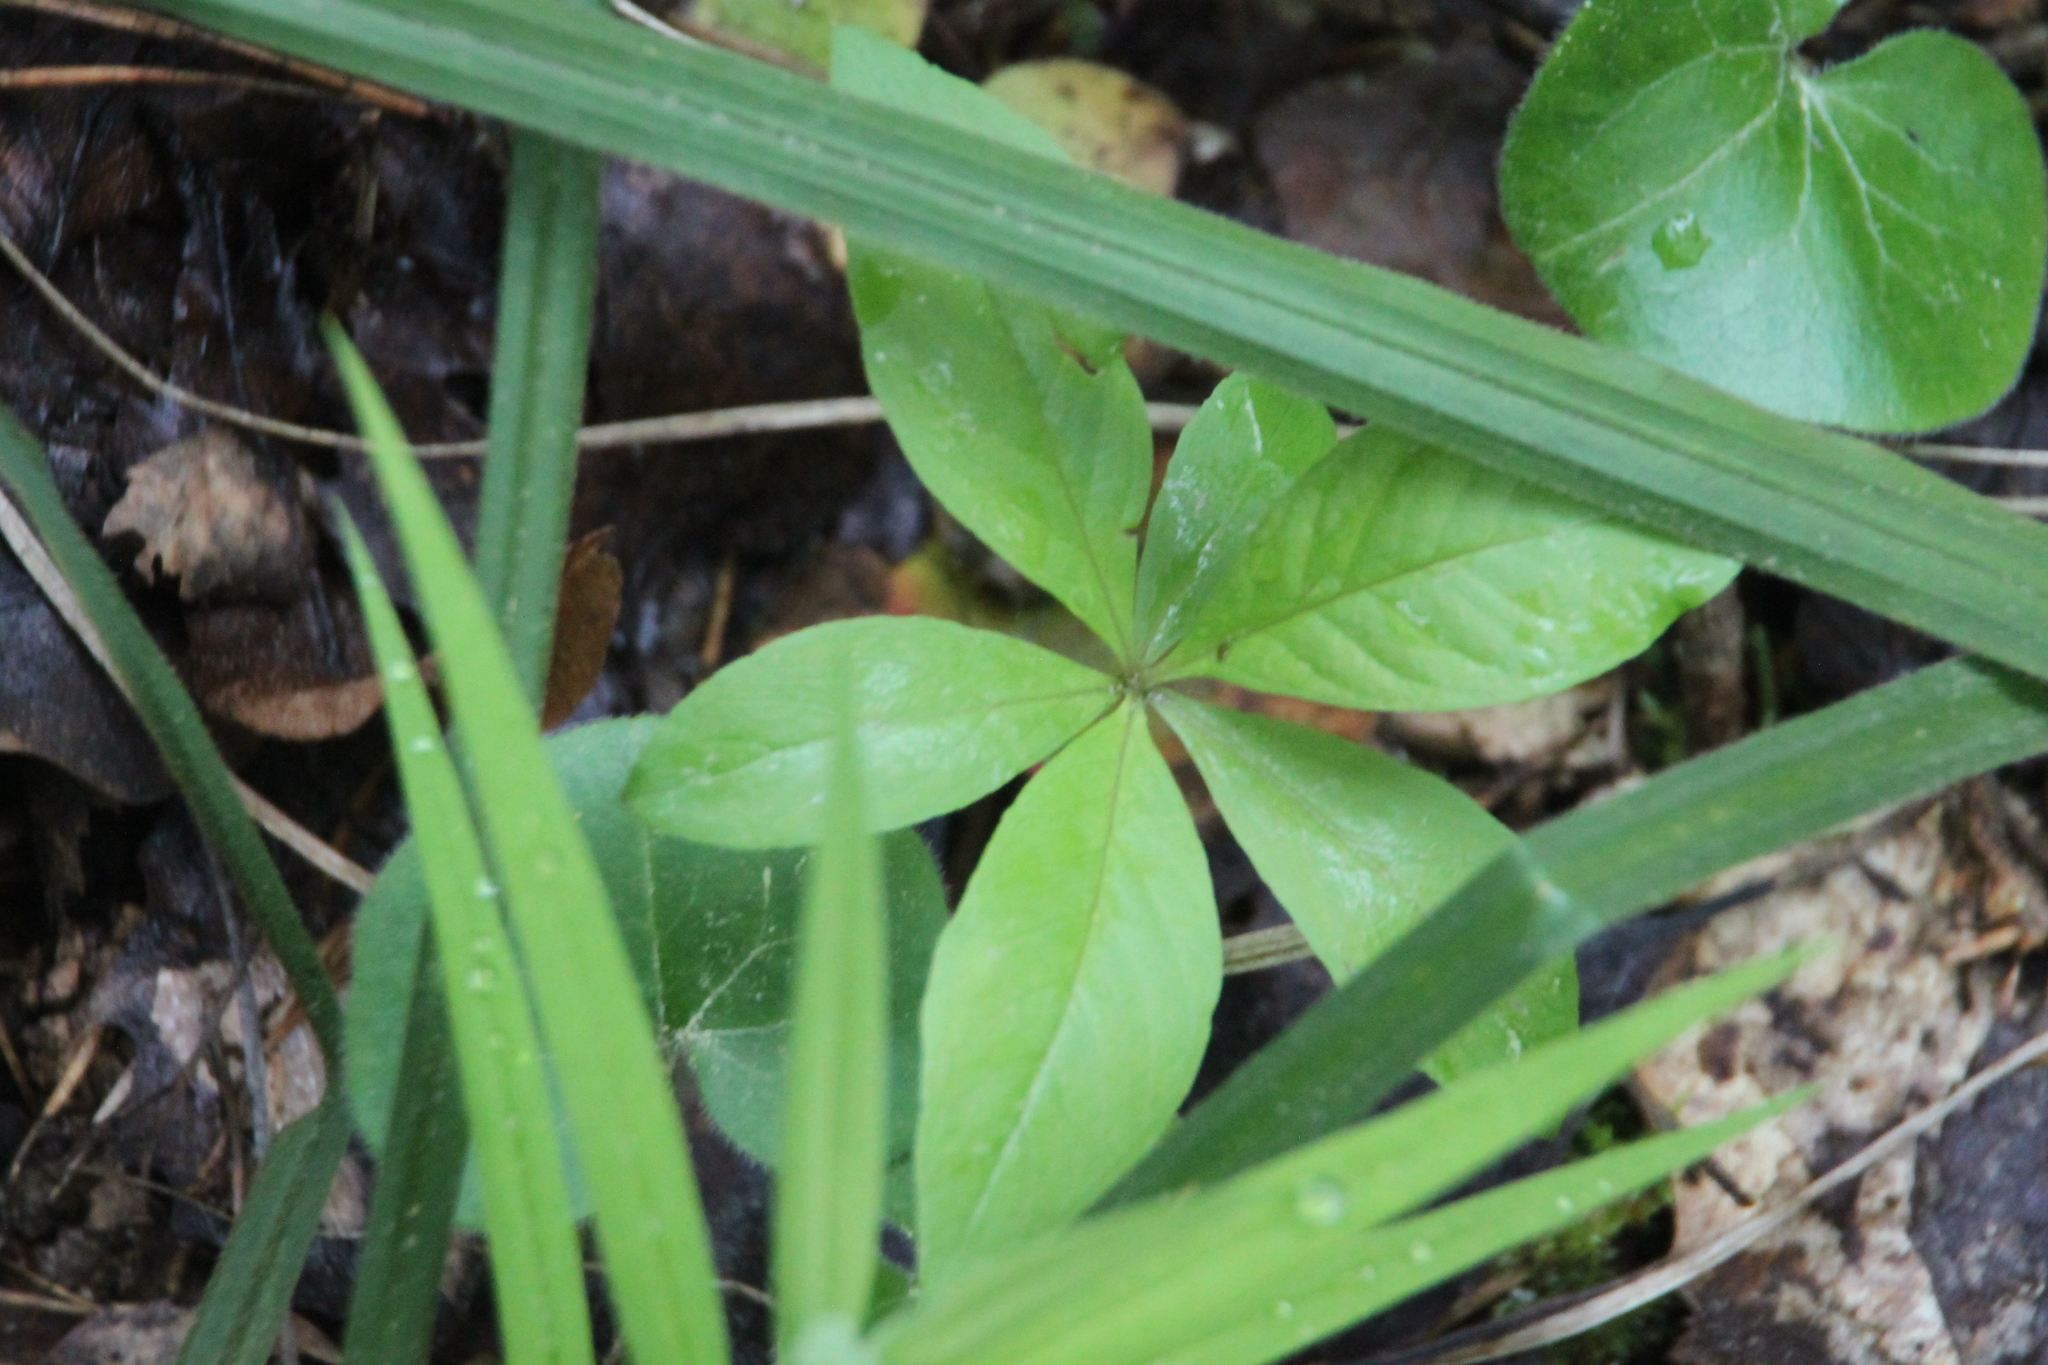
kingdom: Plantae
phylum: Tracheophyta
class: Magnoliopsida
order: Ericales
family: Primulaceae
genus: Lysimachia
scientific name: Lysimachia europaea
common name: Arctic starflower
